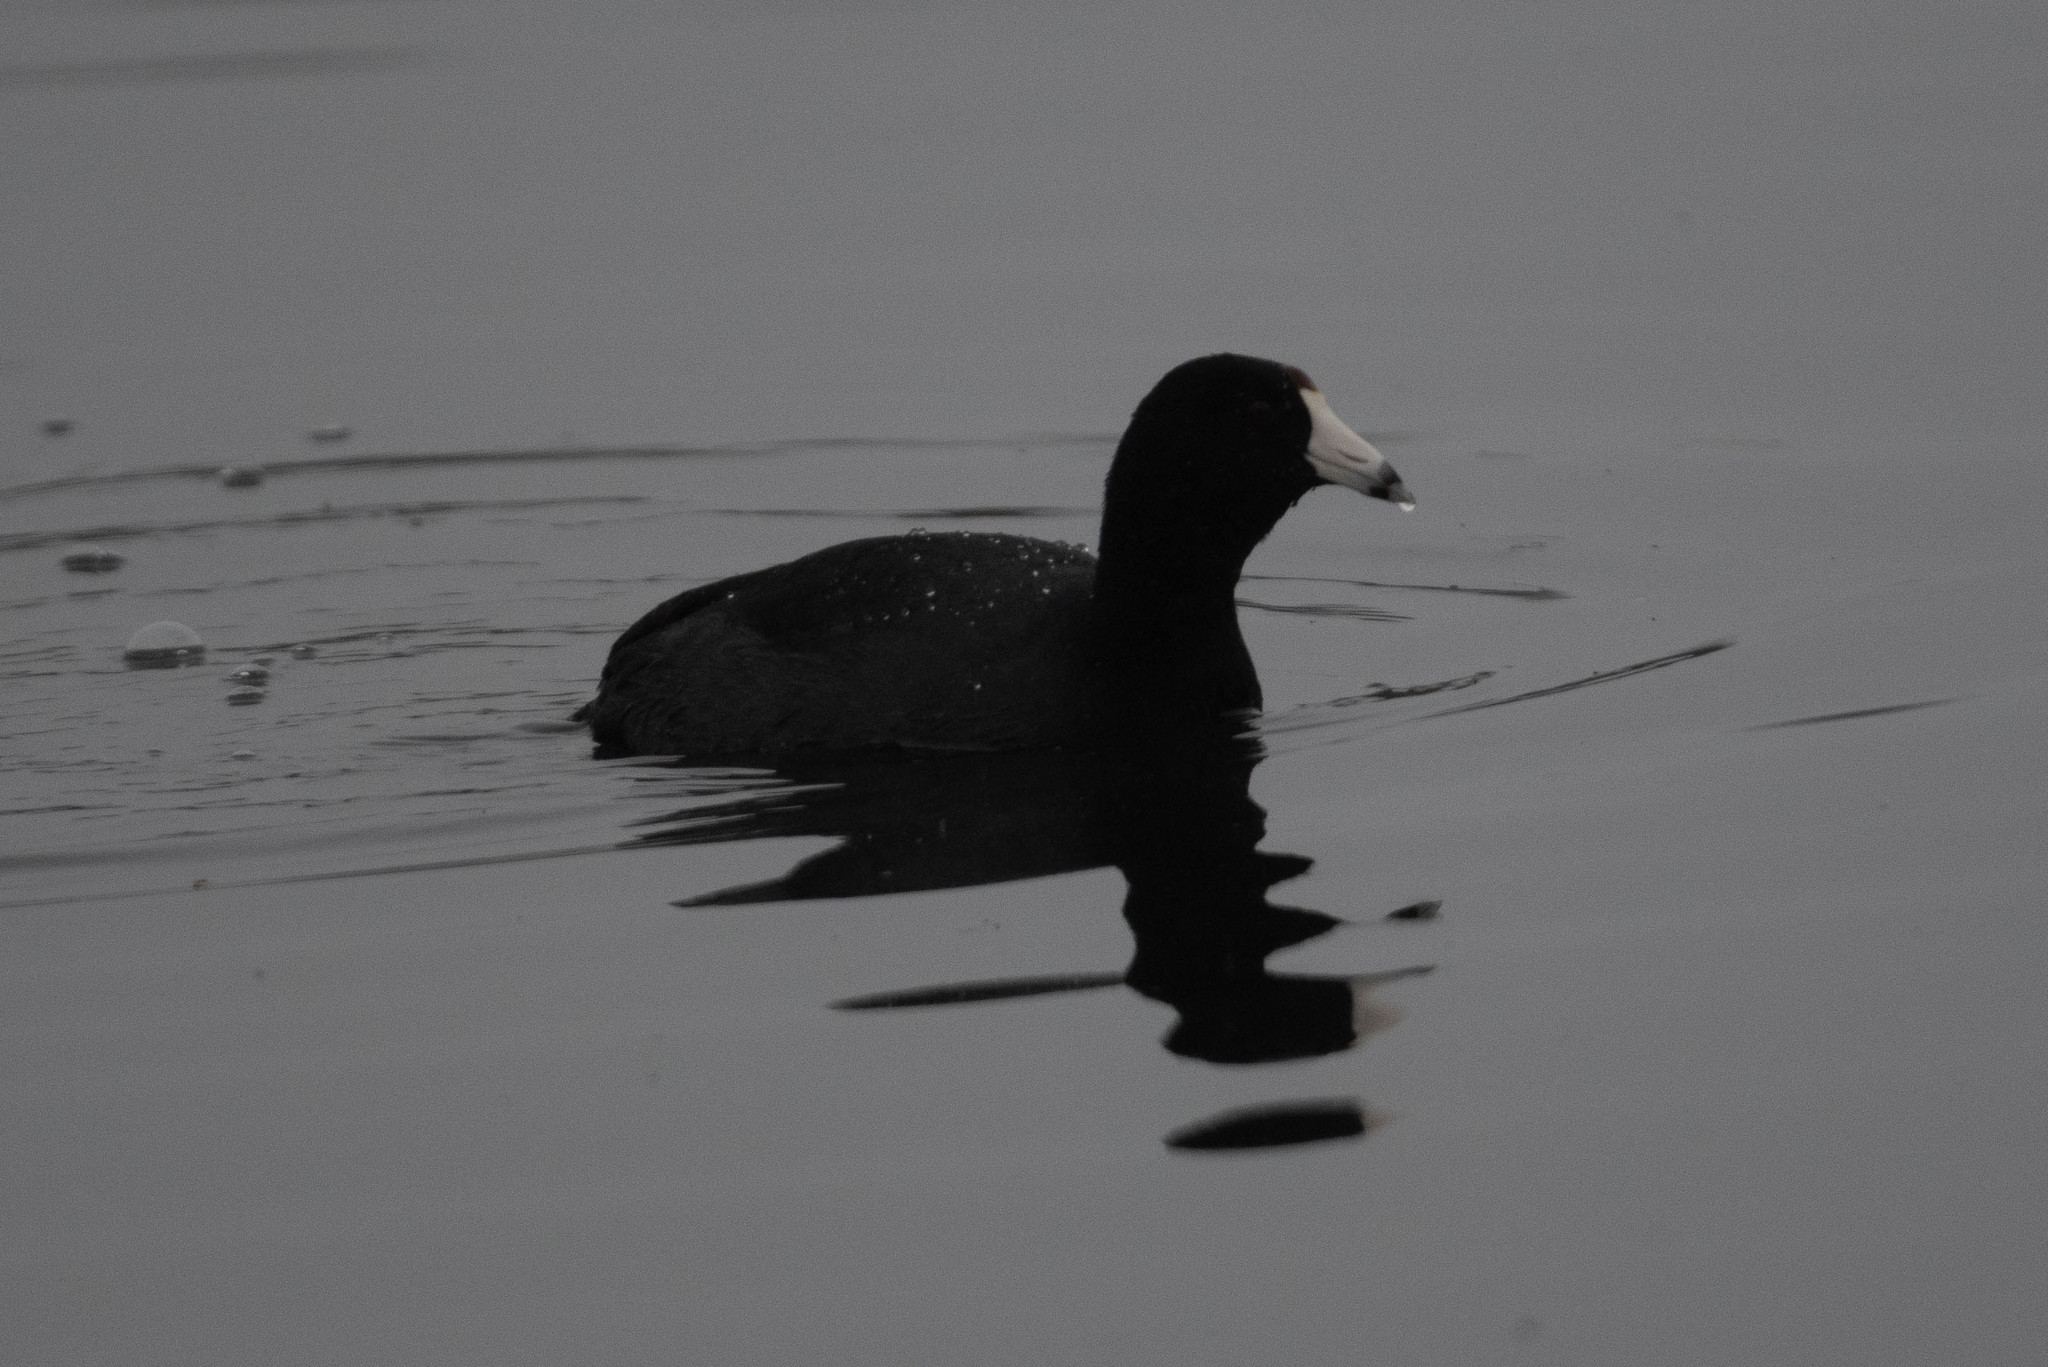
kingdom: Animalia
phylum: Chordata
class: Aves
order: Gruiformes
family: Rallidae
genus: Fulica
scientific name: Fulica americana
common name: American coot
